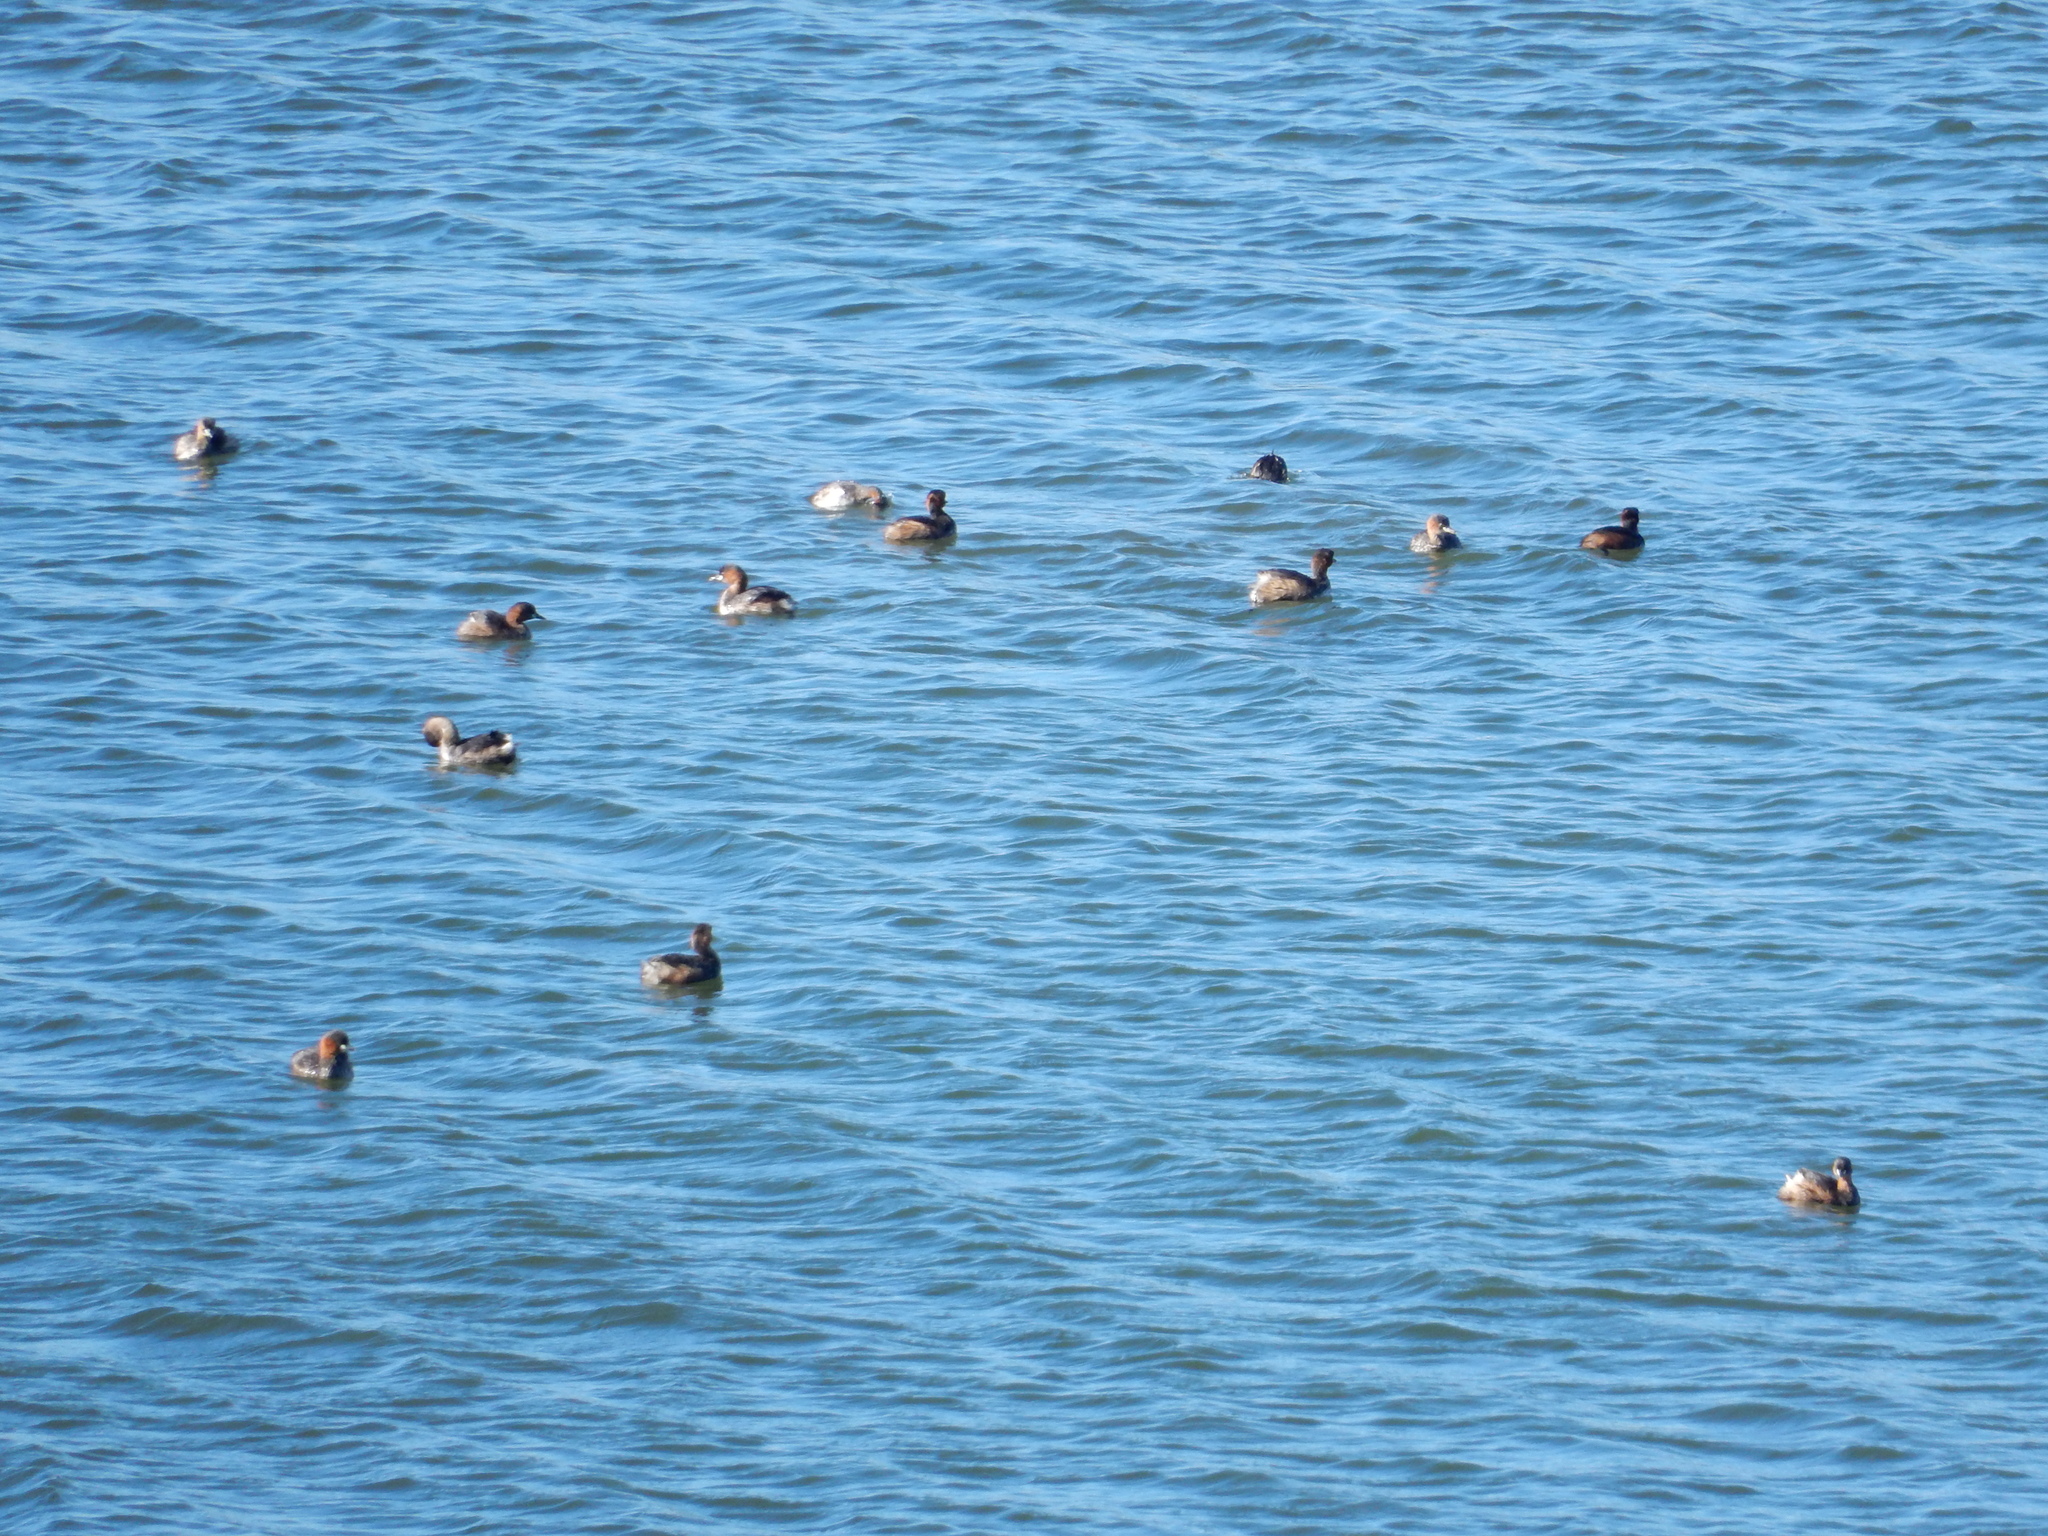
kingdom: Animalia
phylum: Chordata
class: Aves
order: Podicipediformes
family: Podicipedidae
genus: Tachybaptus
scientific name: Tachybaptus ruficollis
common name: Little grebe
